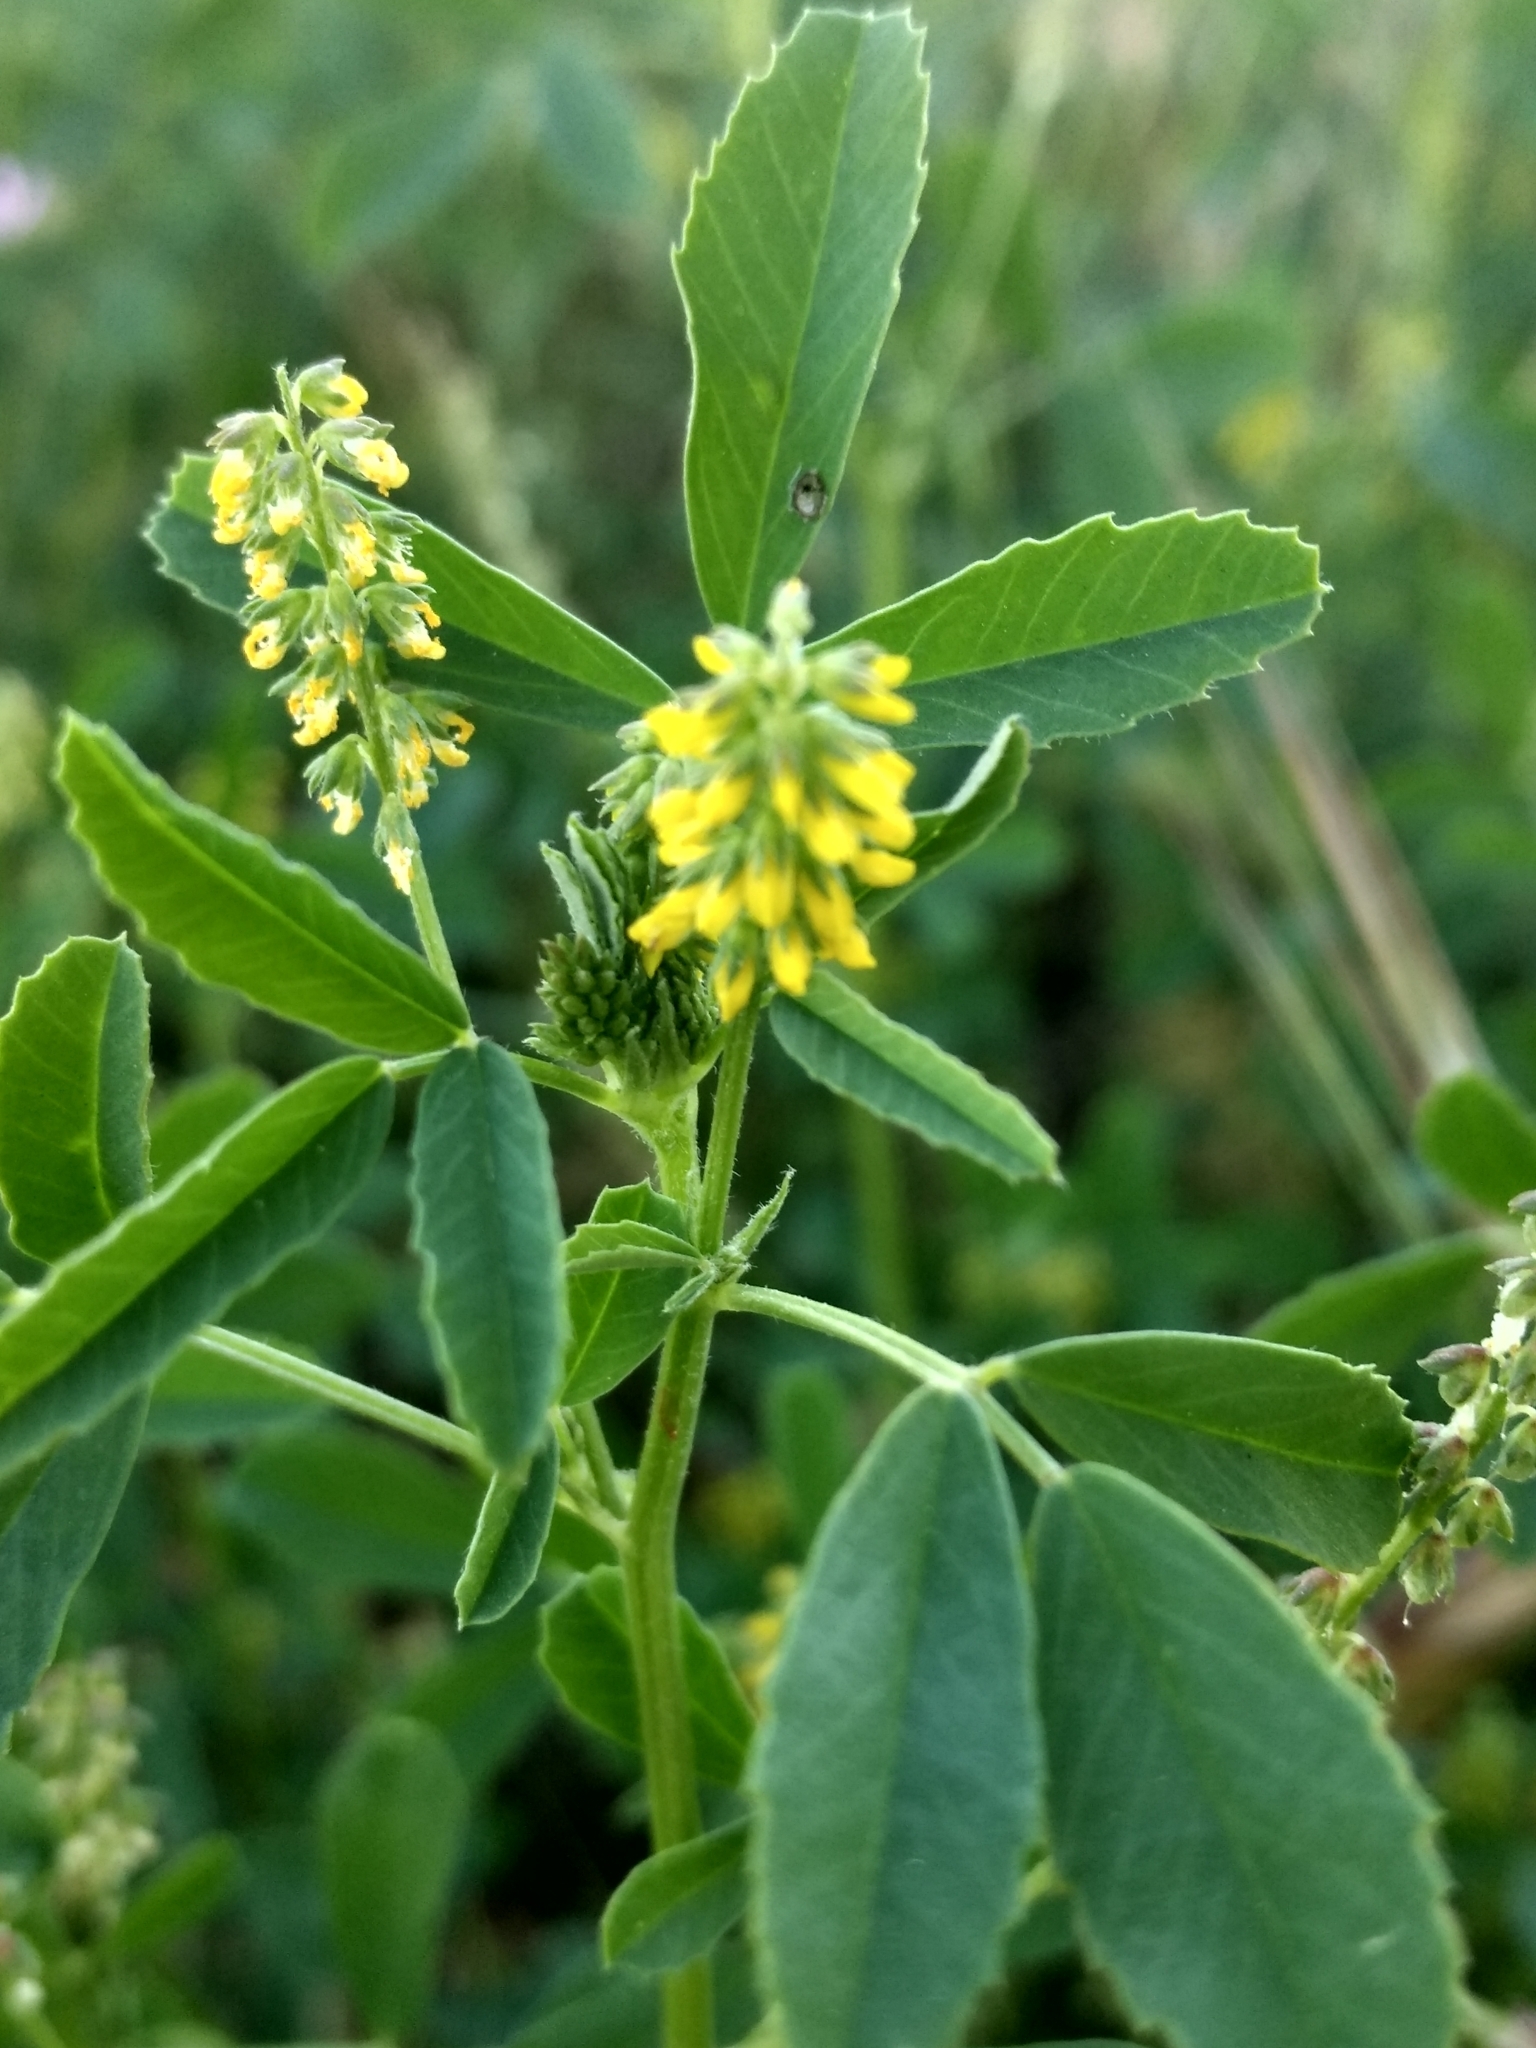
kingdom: Plantae
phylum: Tracheophyta
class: Magnoliopsida
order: Fabales
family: Fabaceae
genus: Melilotus
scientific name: Melilotus indicus
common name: Small melilot
